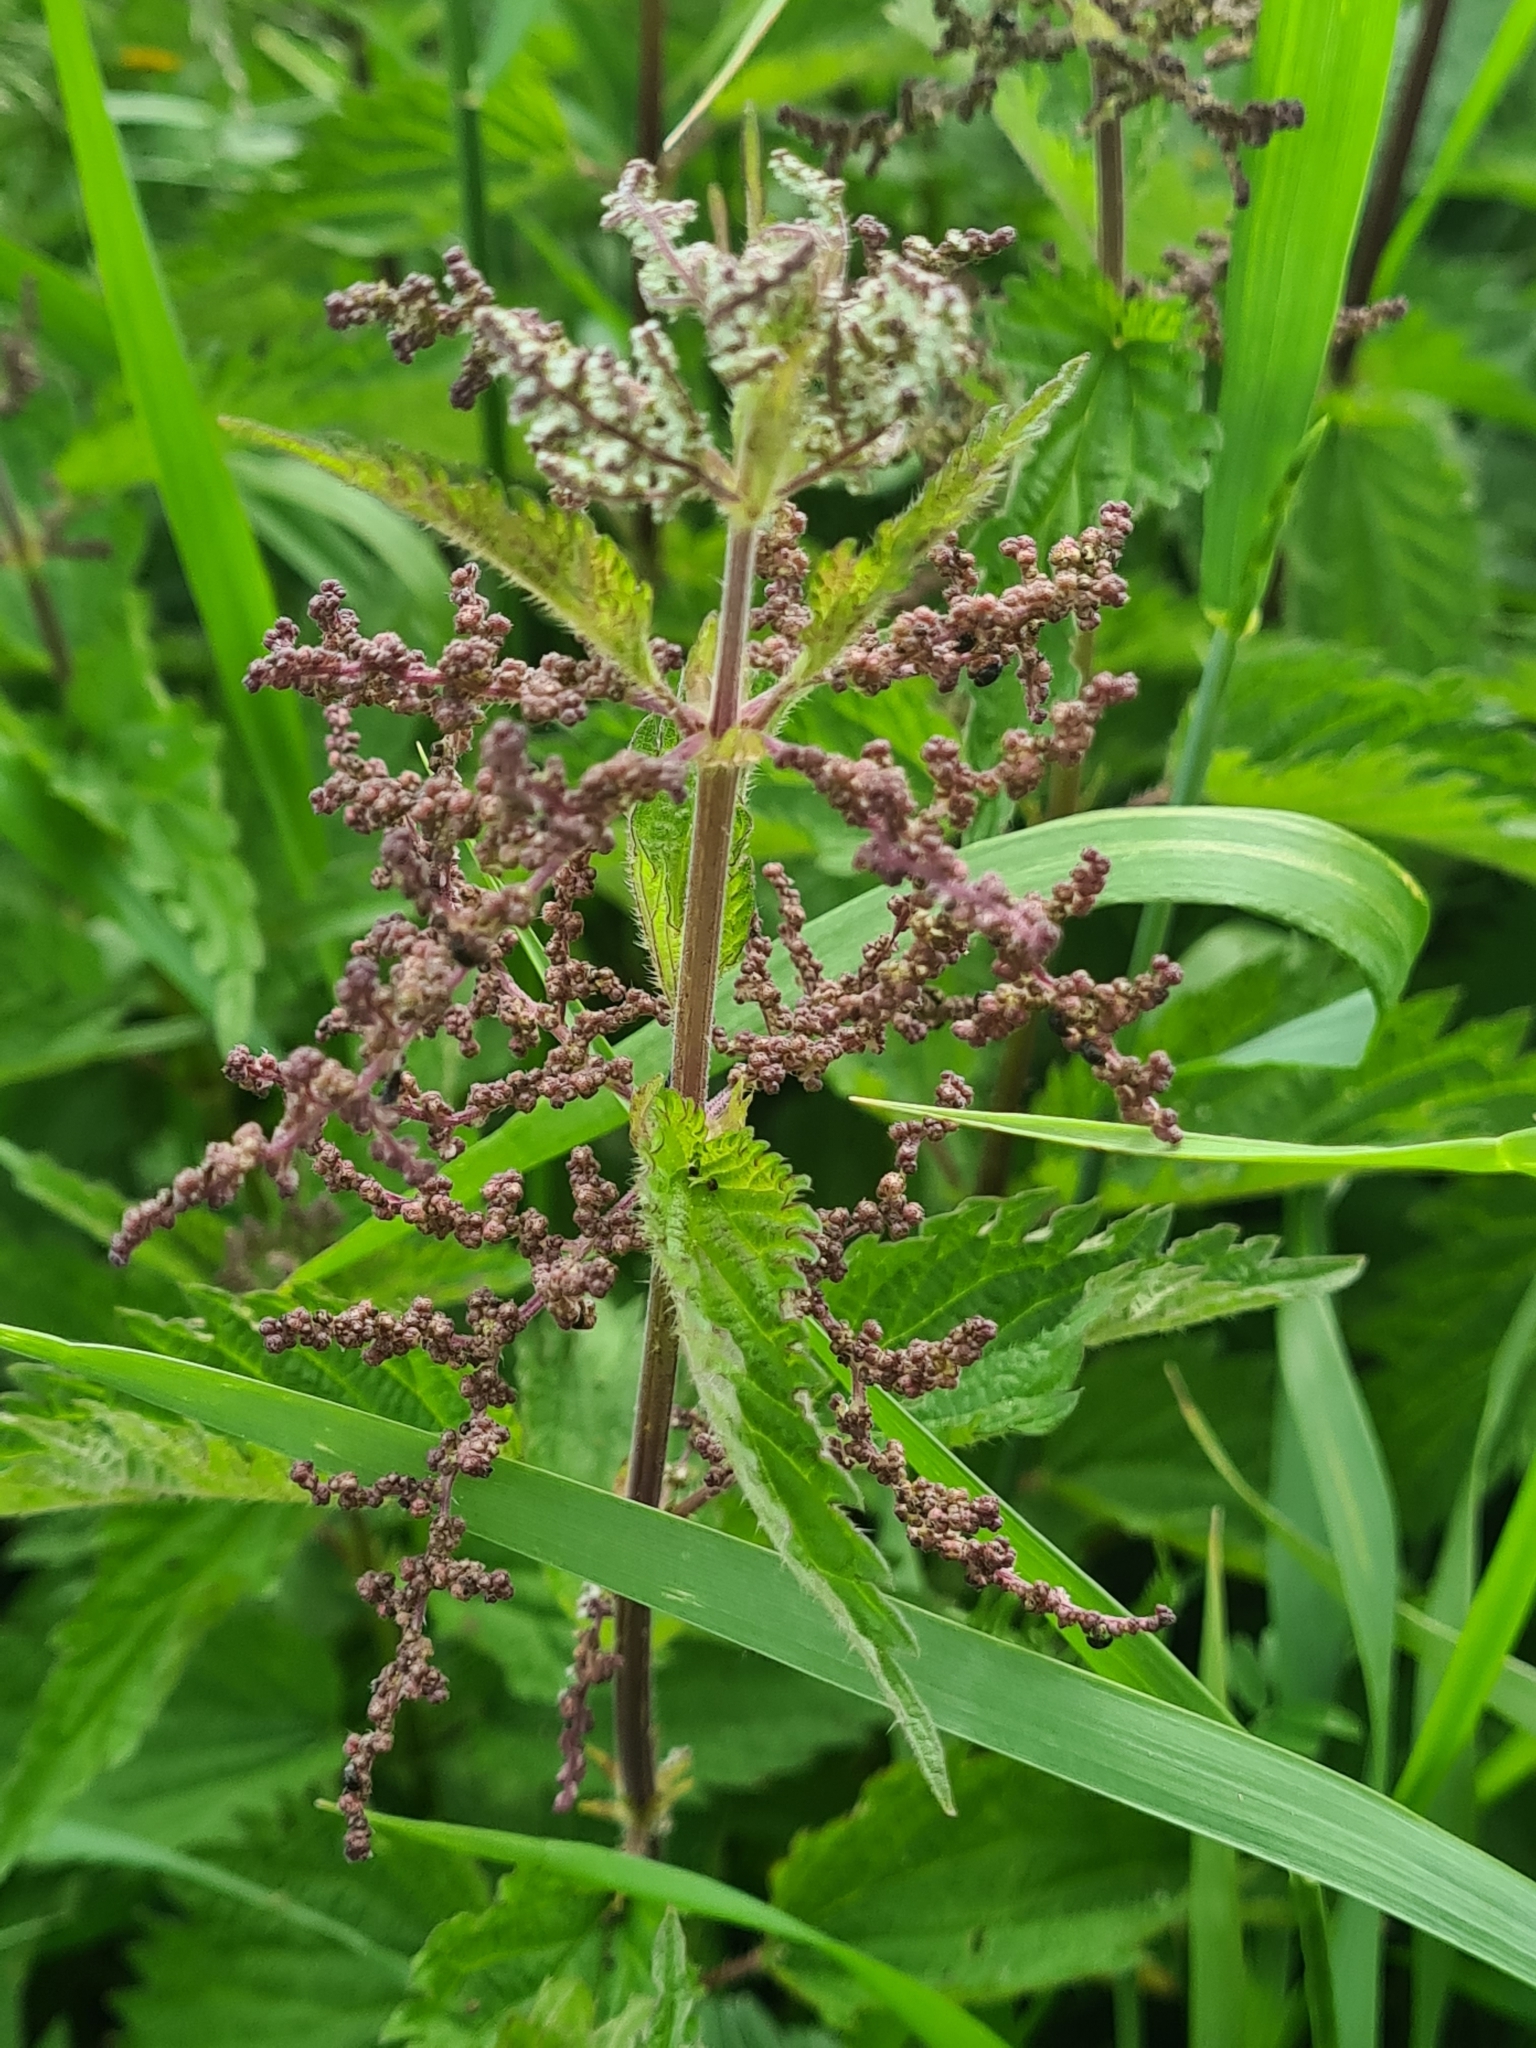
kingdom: Plantae
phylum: Tracheophyta
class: Magnoliopsida
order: Rosales
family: Urticaceae
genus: Urtica
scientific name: Urtica dioica
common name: Common nettle
